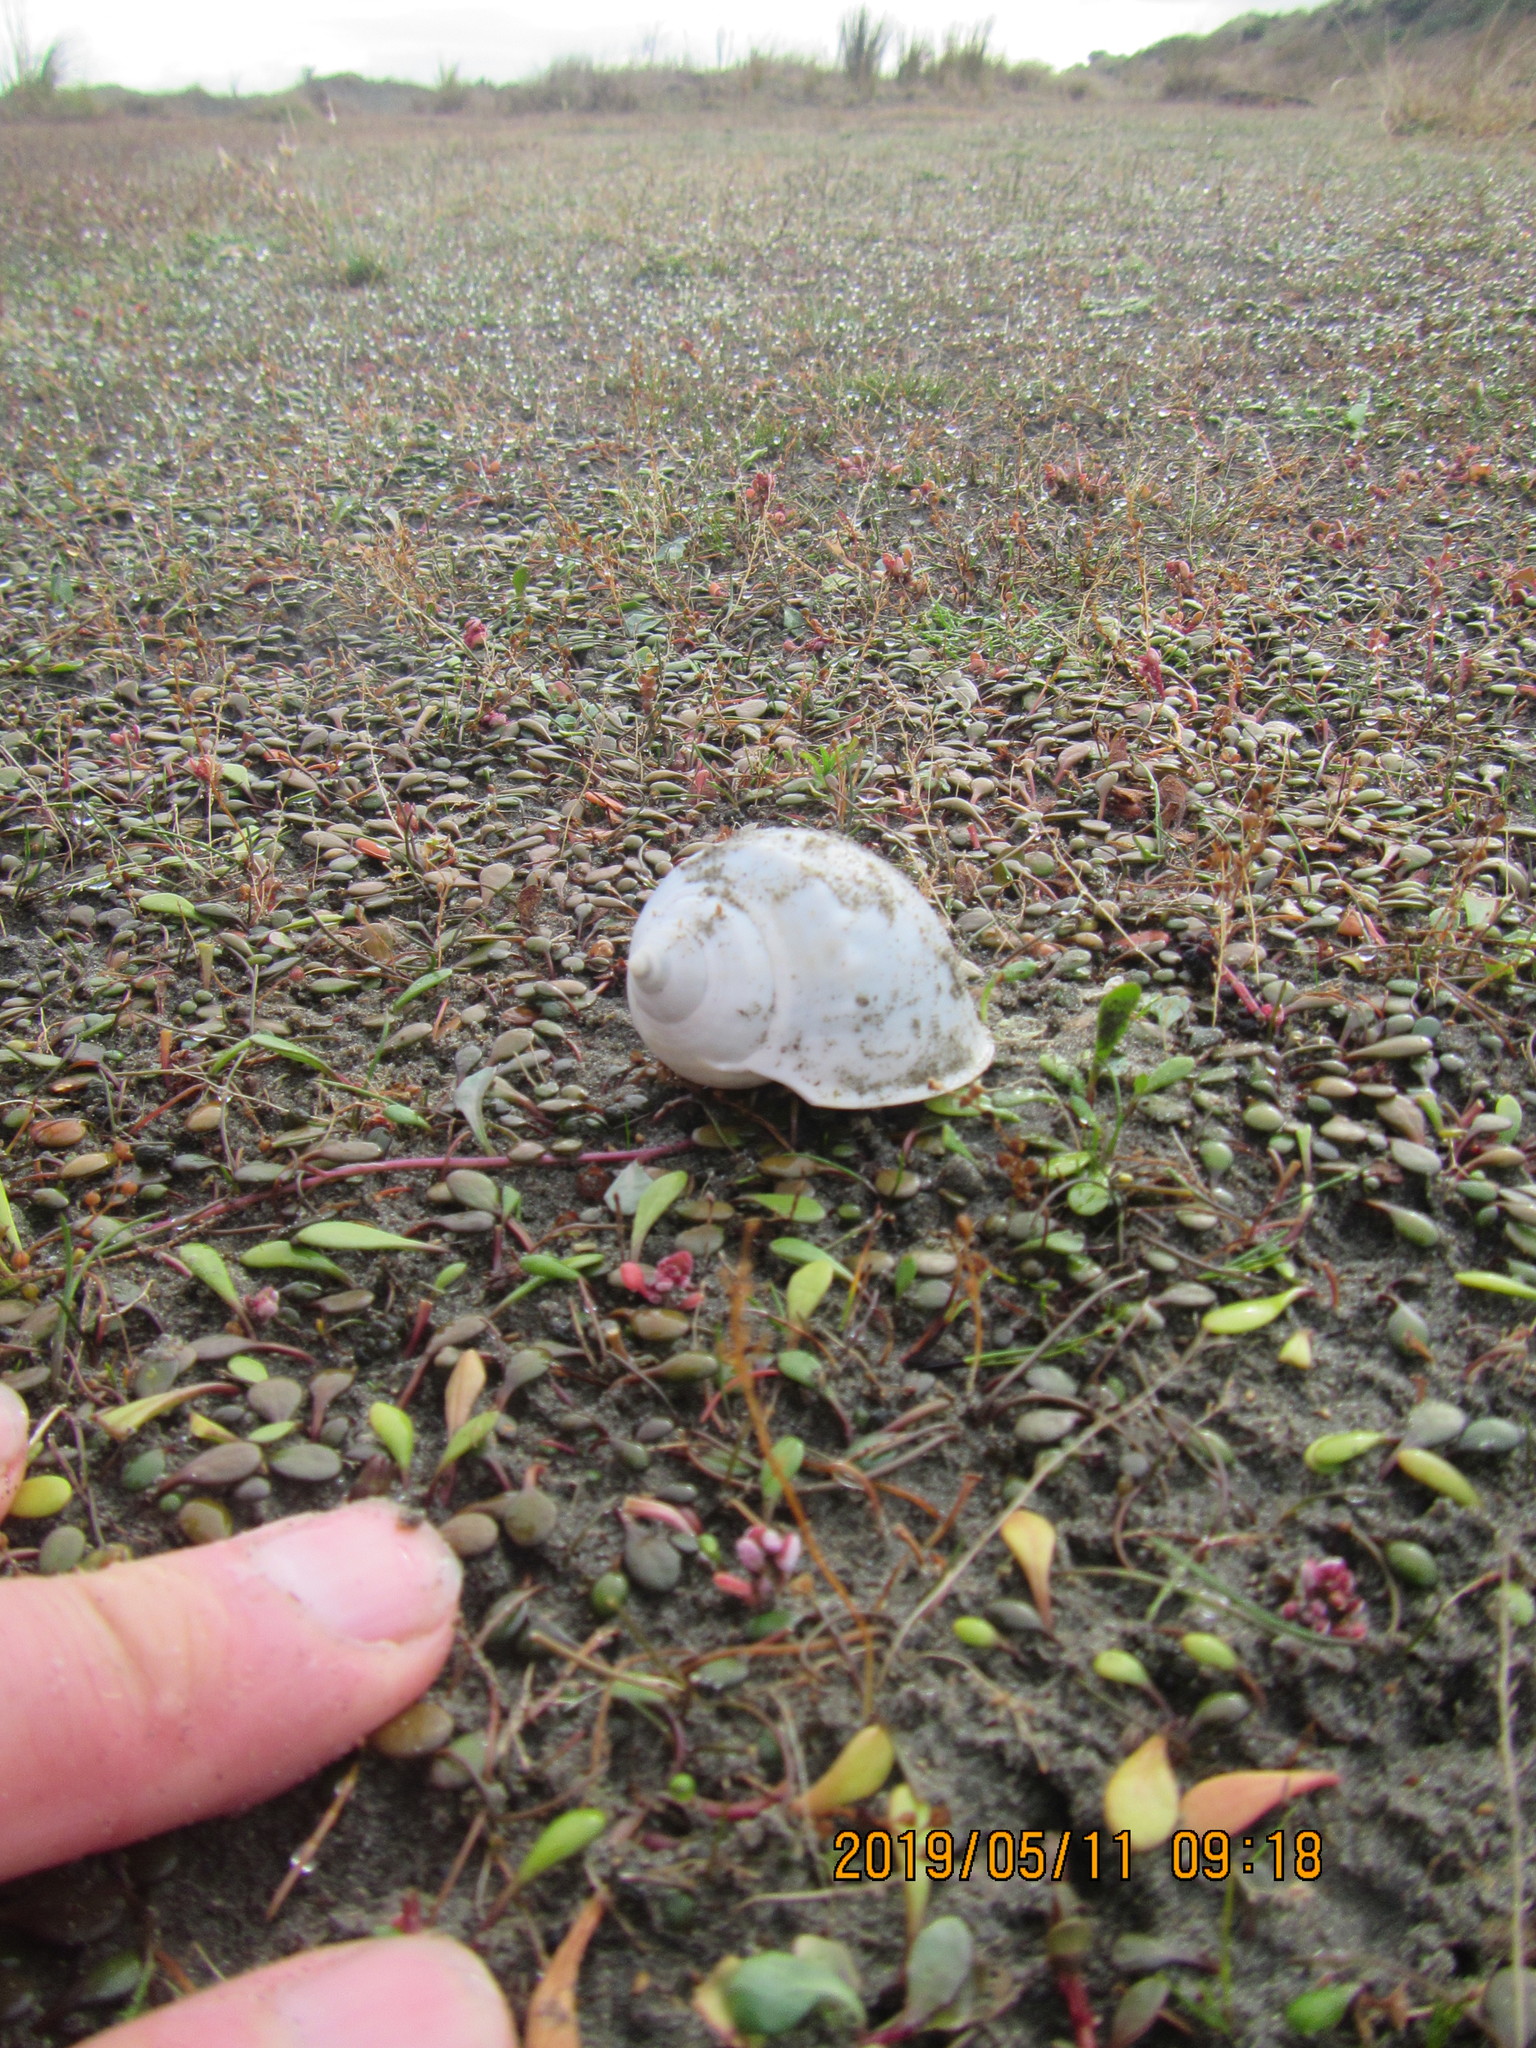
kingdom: Animalia
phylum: Mollusca
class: Gastropoda
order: Littorinimorpha
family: Cassidae
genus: Semicassis
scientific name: Semicassis pyrum
